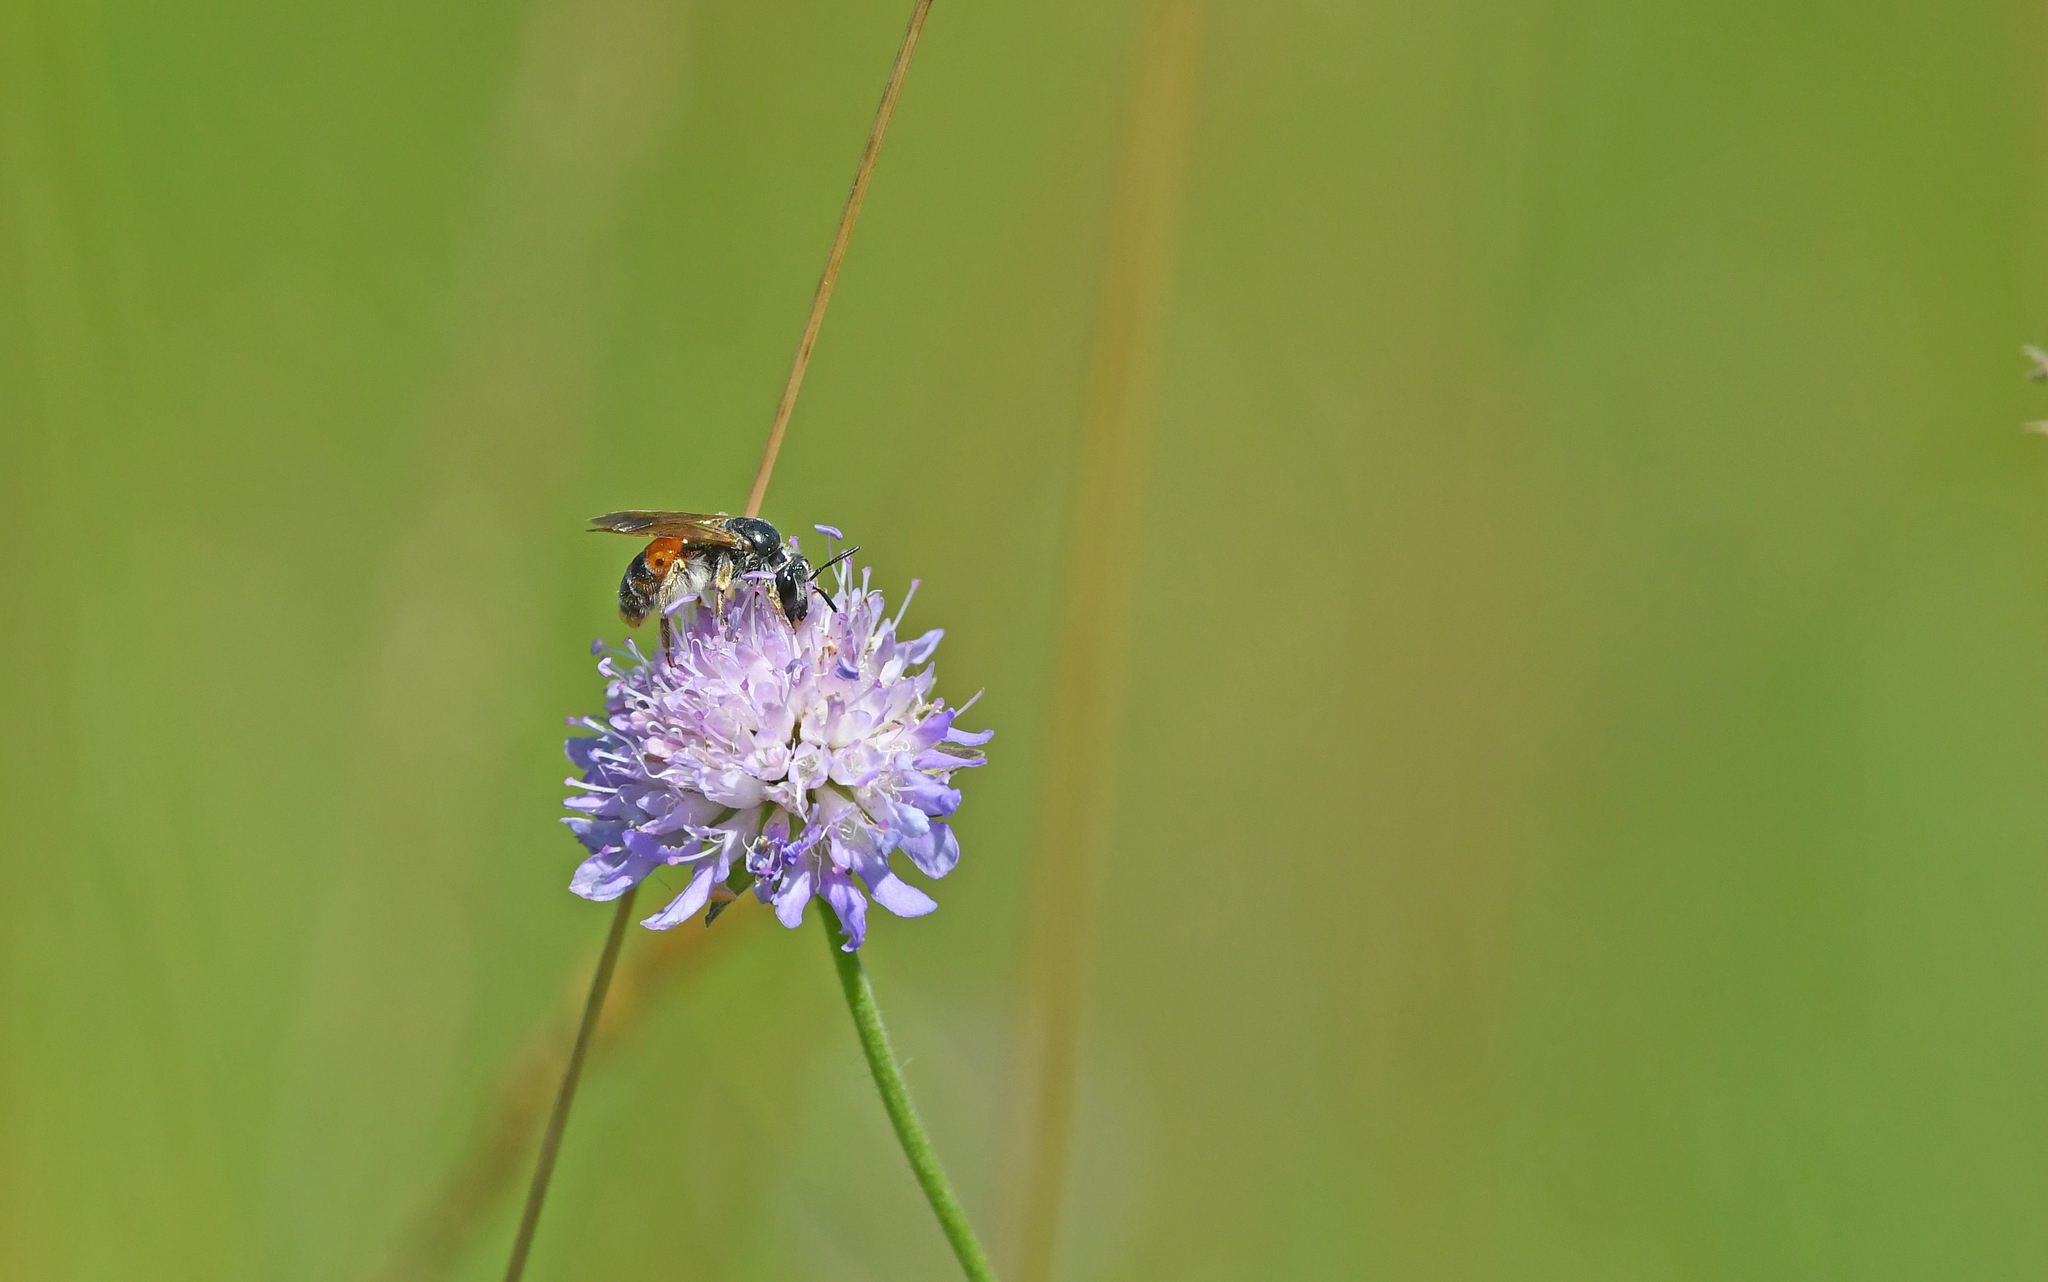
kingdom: Animalia
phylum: Arthropoda
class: Insecta
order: Hymenoptera
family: Andrenidae
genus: Andrena
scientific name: Andrena hattorfiana
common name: Large scabious mining bee
